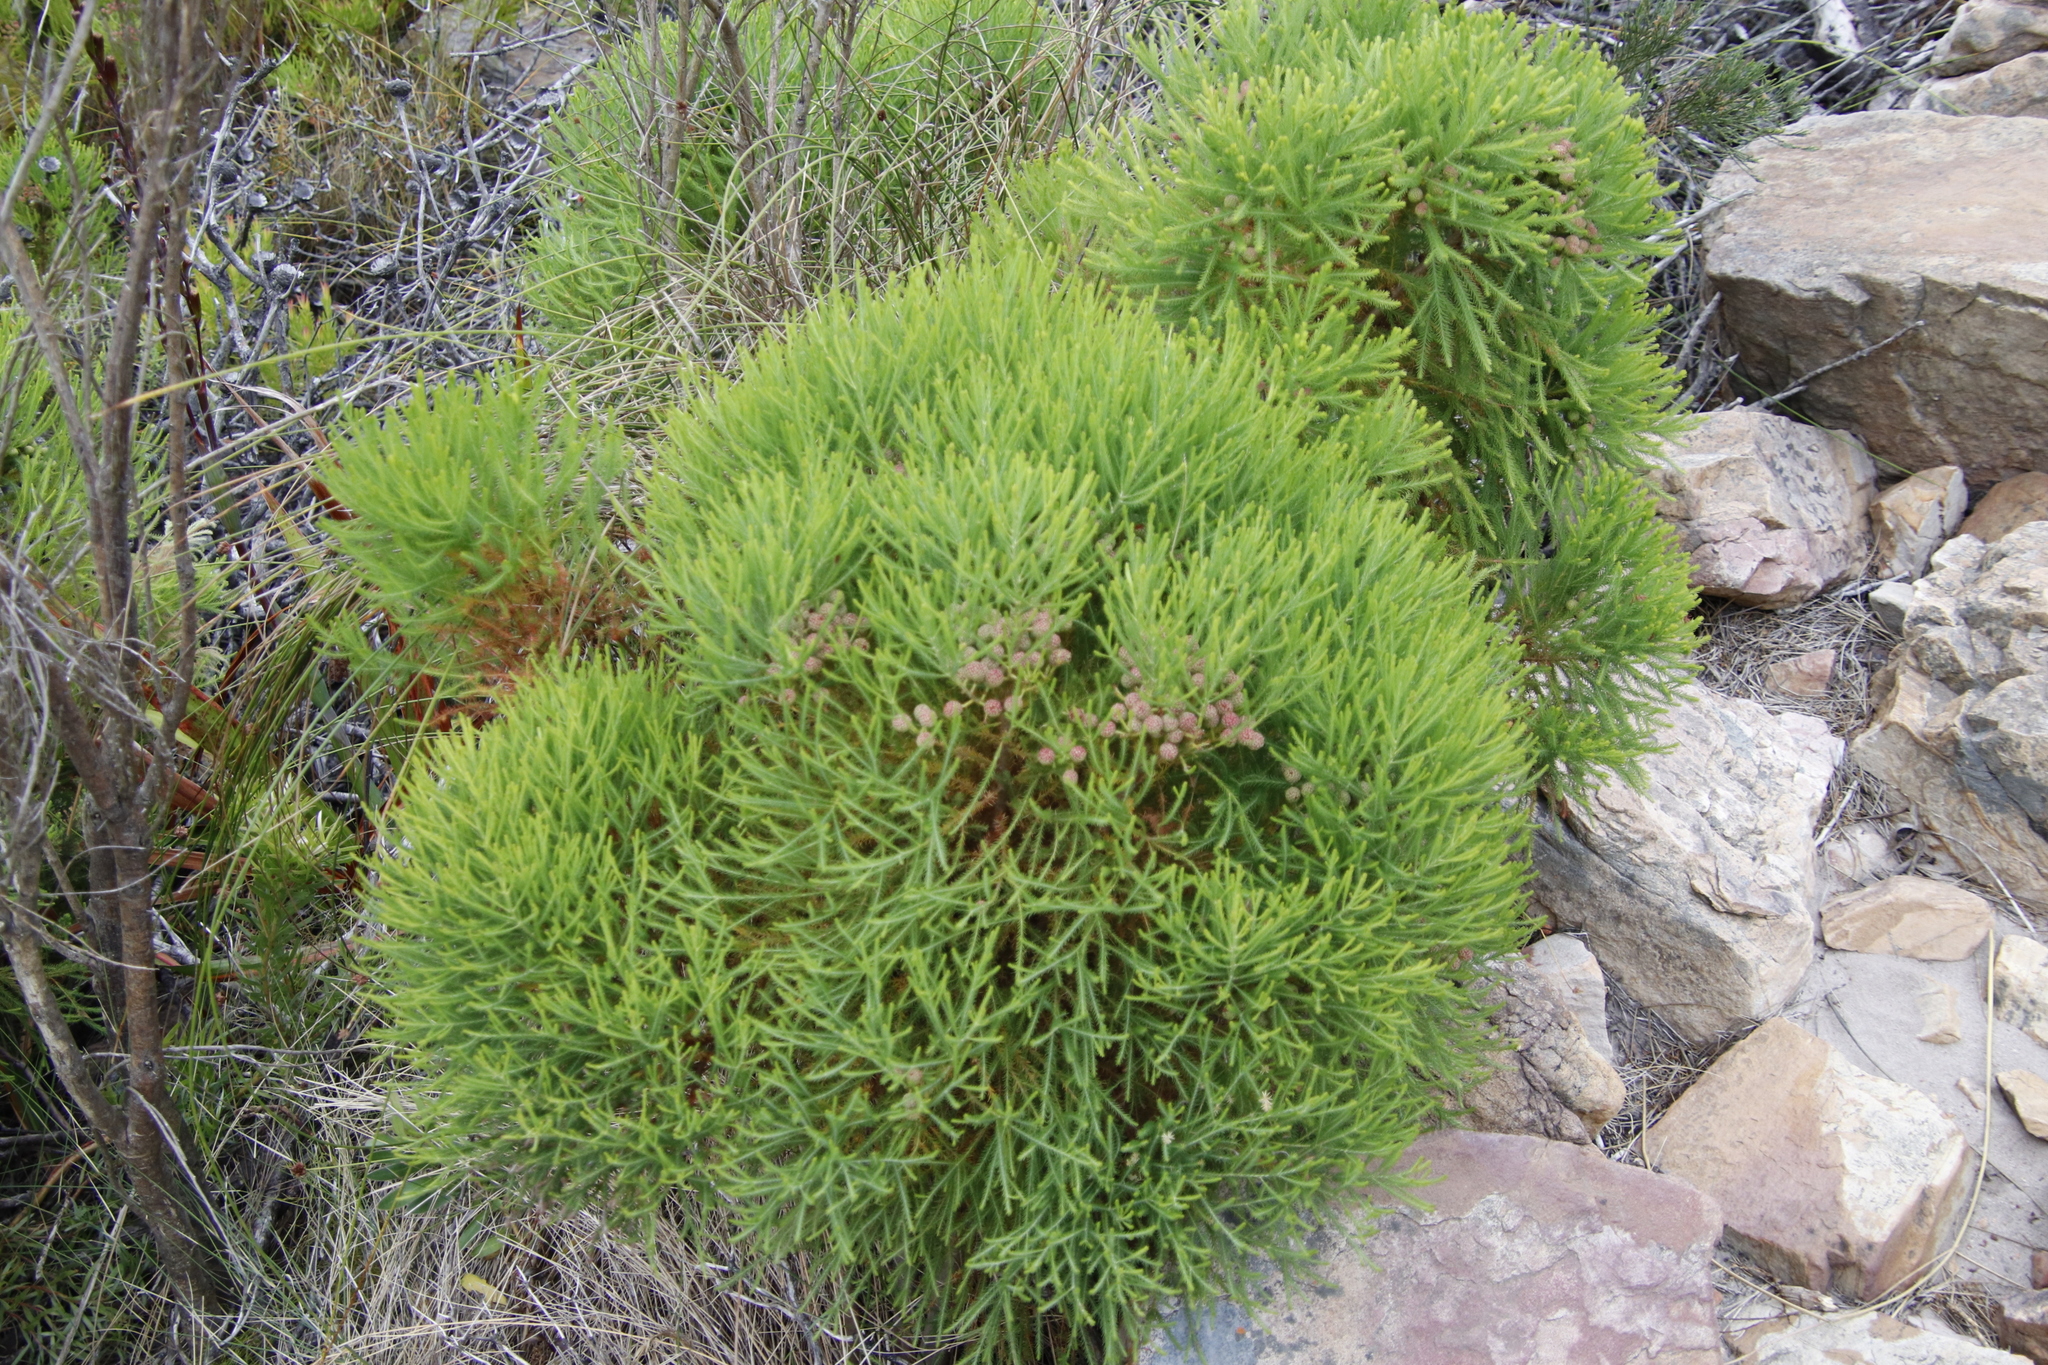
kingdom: Plantae
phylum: Tracheophyta
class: Magnoliopsida
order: Bruniales
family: Bruniaceae
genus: Berzelia
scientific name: Berzelia lanuginosa
